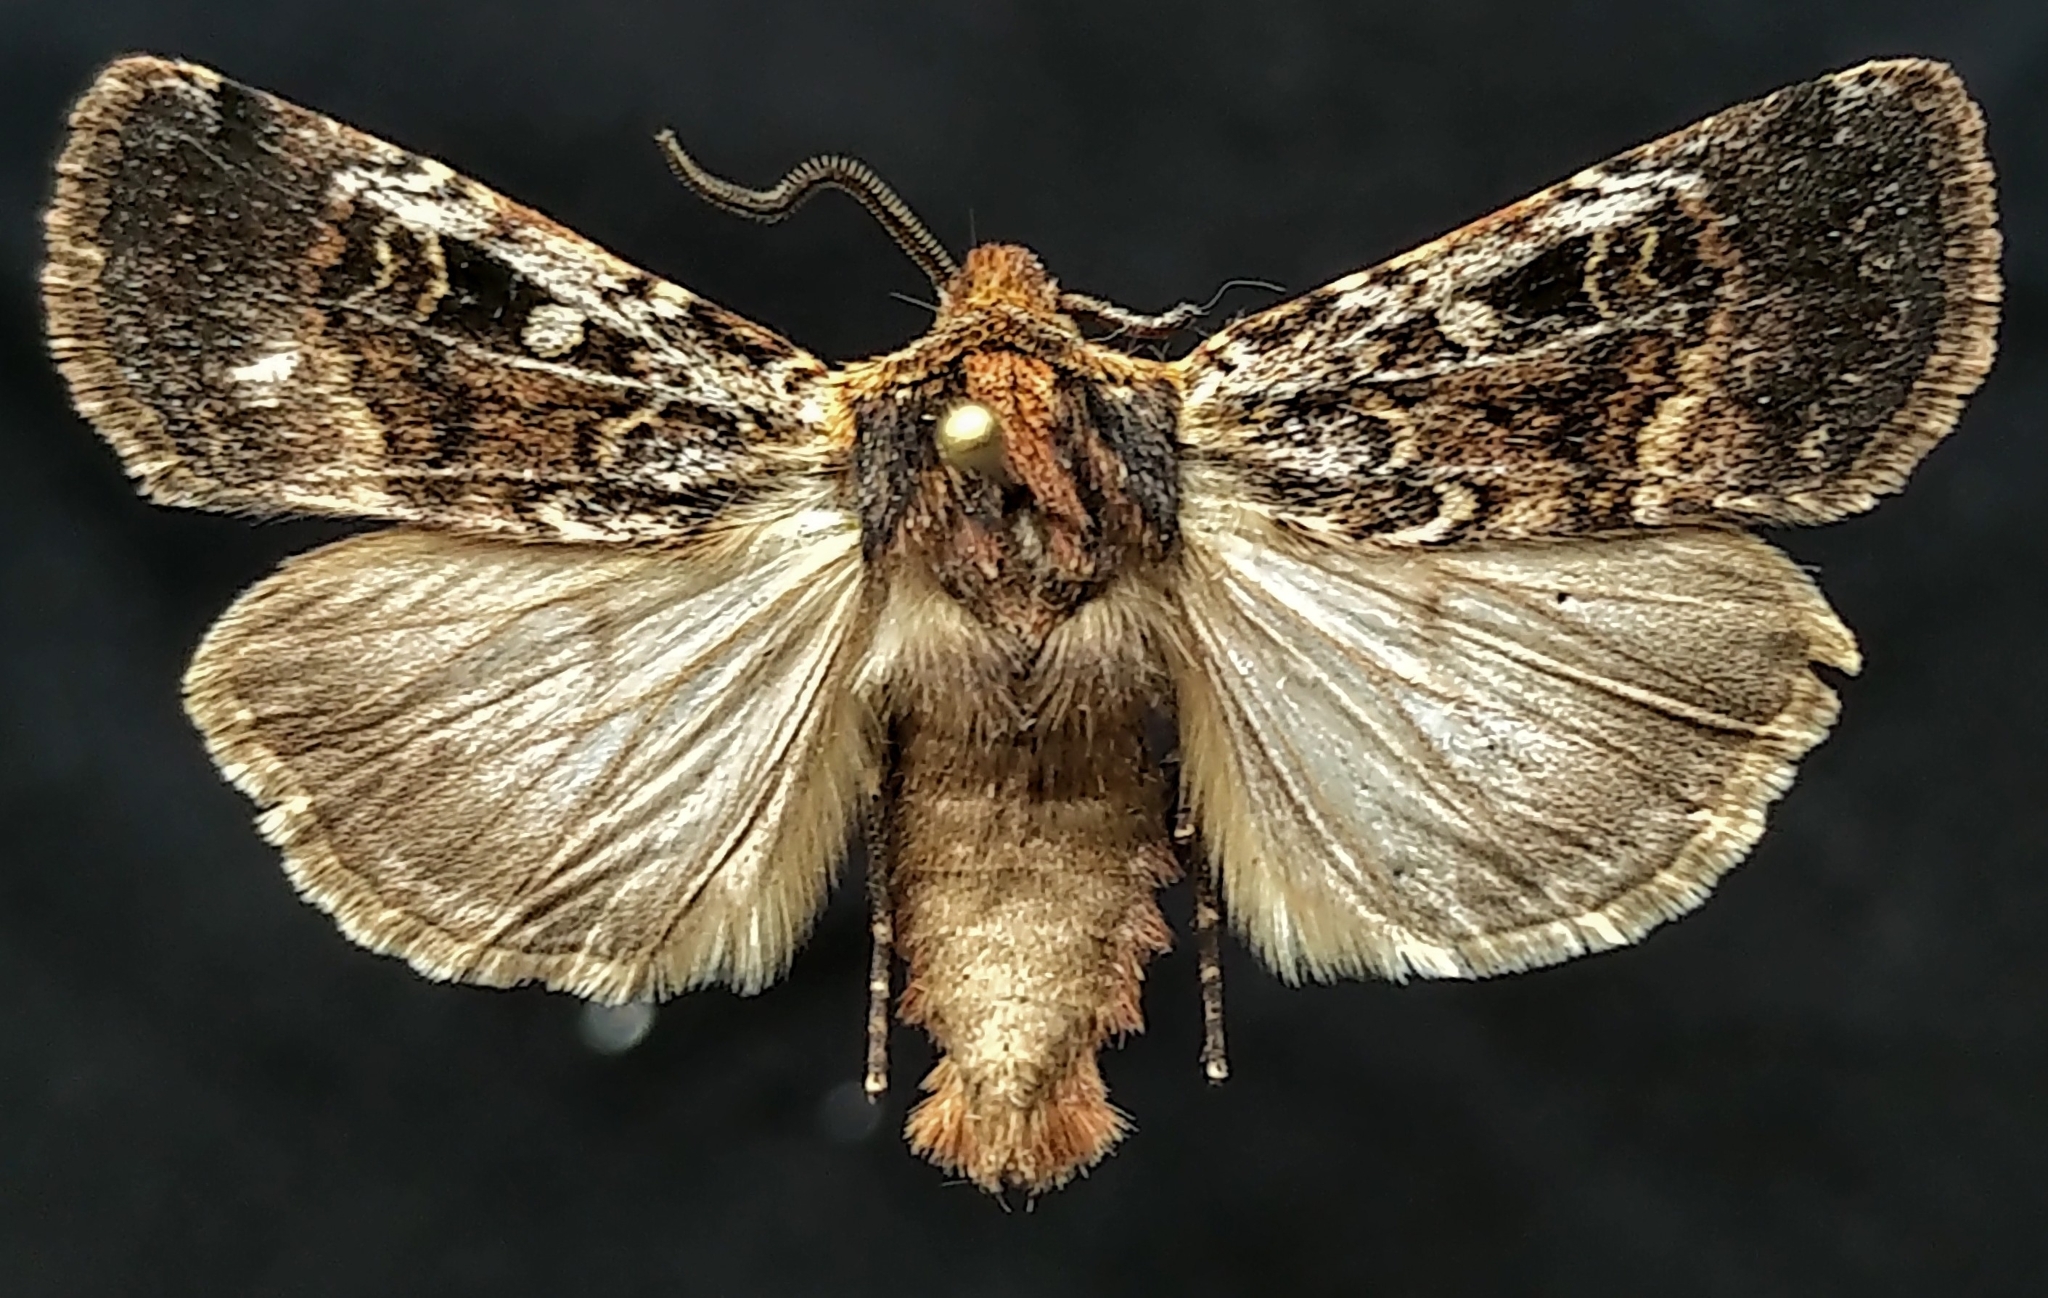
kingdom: Animalia
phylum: Arthropoda
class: Insecta
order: Lepidoptera
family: Noctuidae
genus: Euxoa
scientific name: Euxoa intrita
